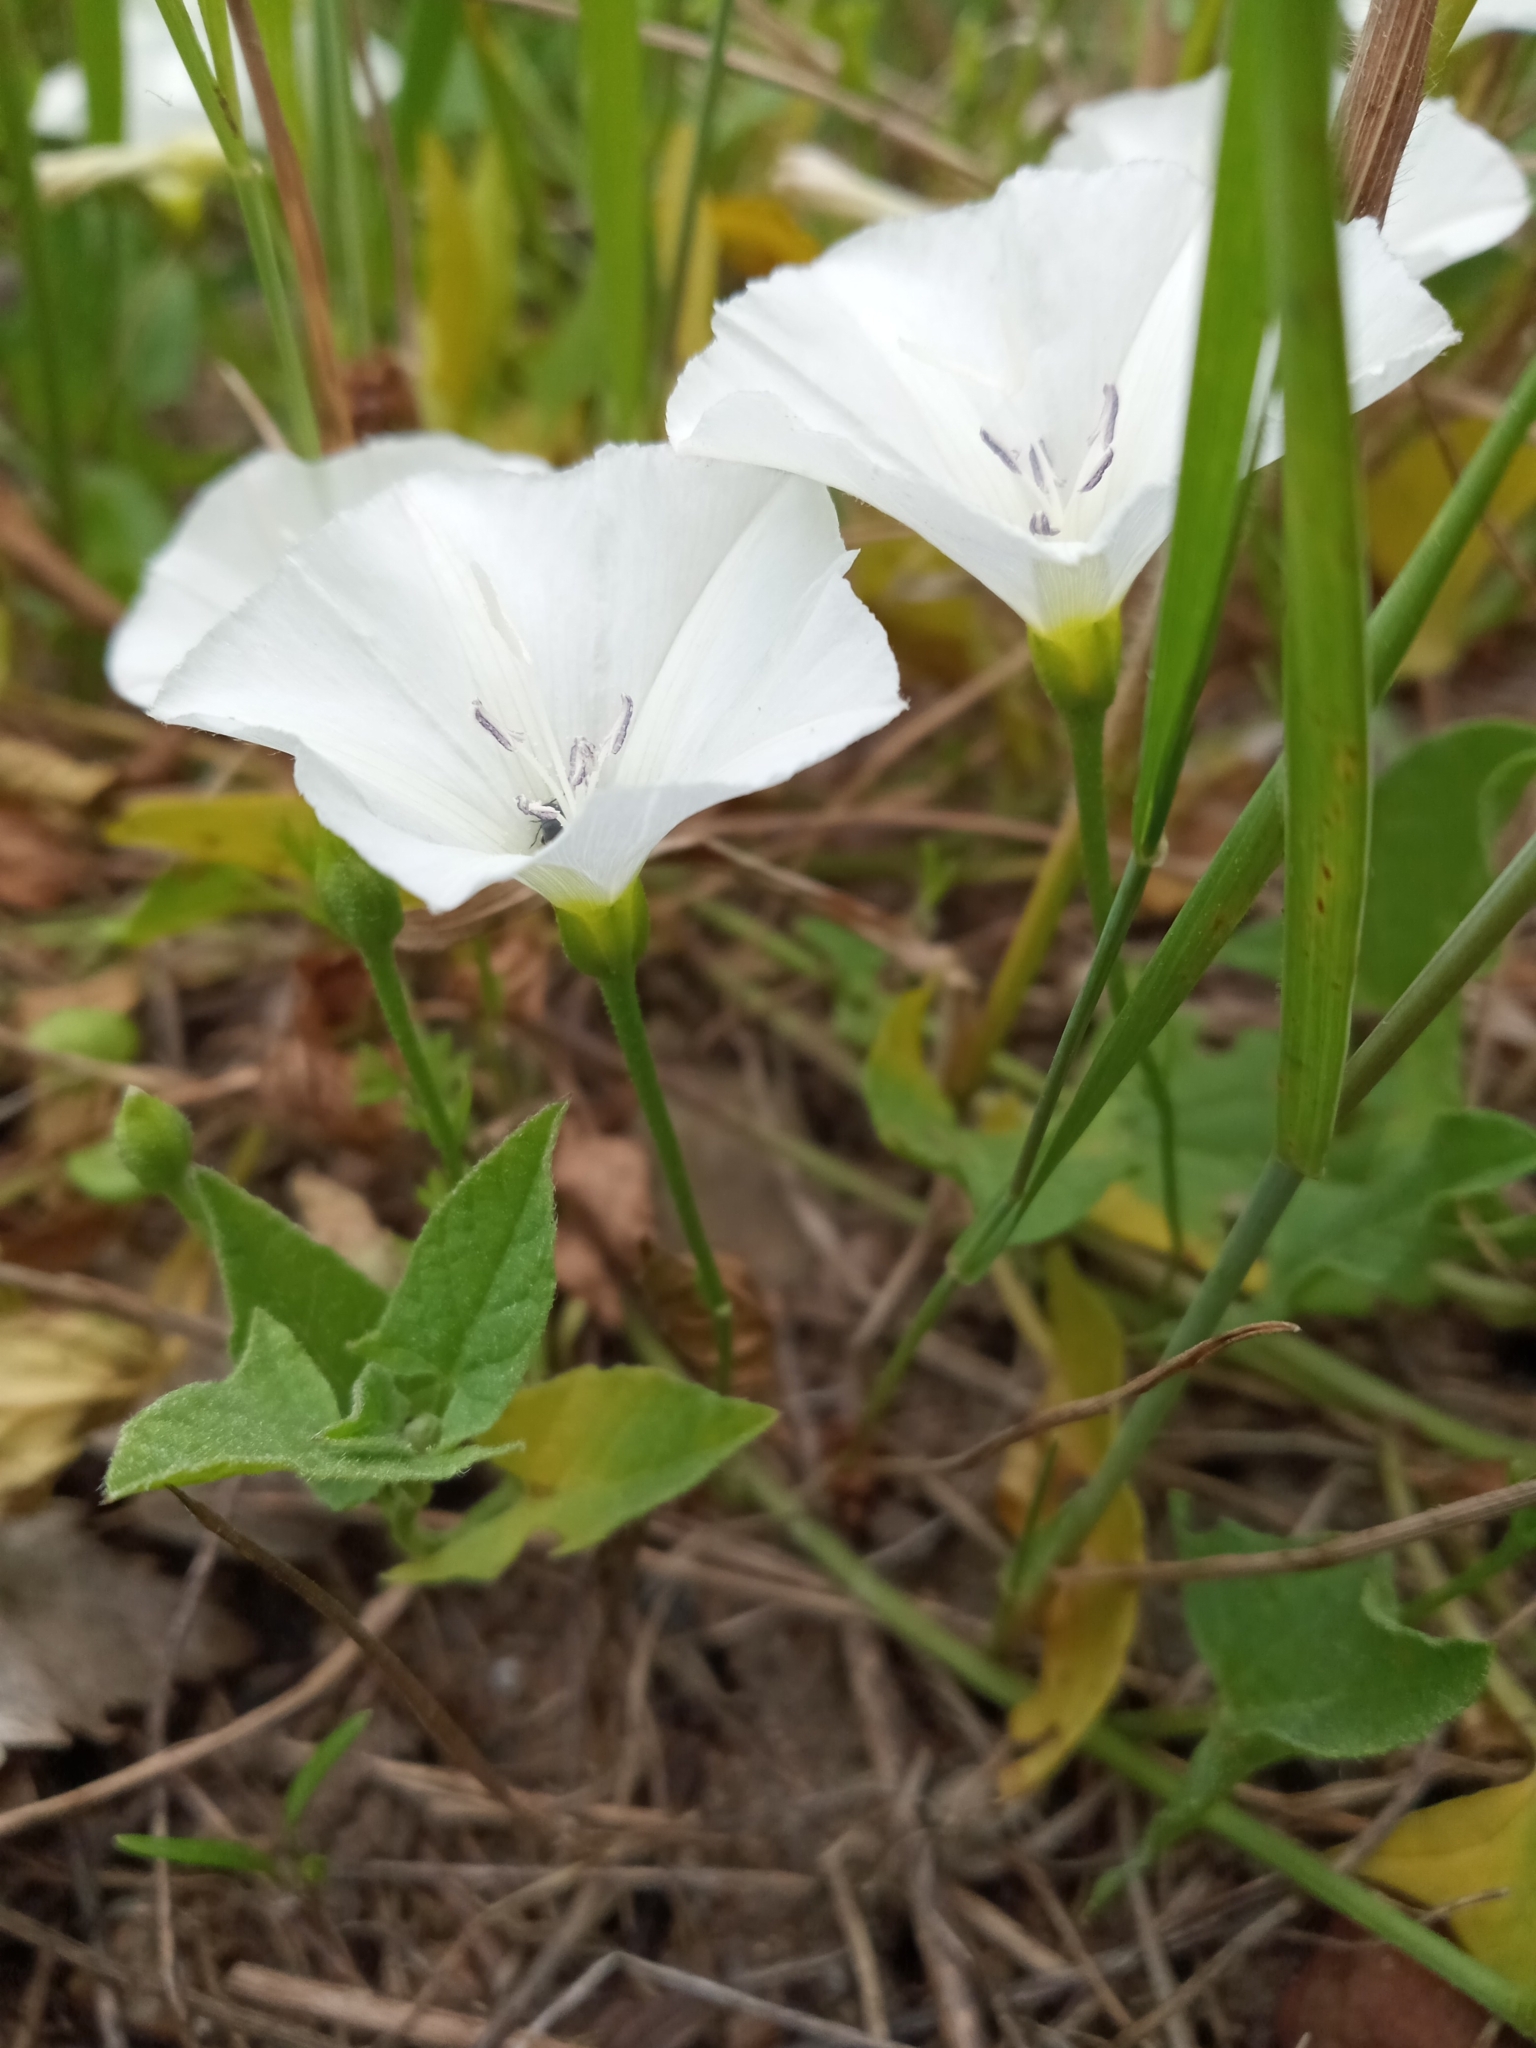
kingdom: Plantae
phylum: Tracheophyta
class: Magnoliopsida
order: Solanales
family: Convolvulaceae
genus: Convolvulus
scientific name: Convolvulus arvensis
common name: Field bindweed
